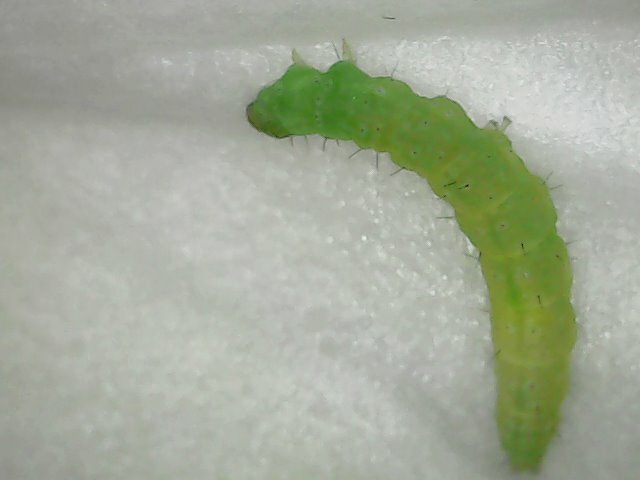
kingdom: Animalia
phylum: Arthropoda
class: Insecta
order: Lepidoptera
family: Plutellidae
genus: Plutella
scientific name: Plutella xylostella
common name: Diamond-back moth
